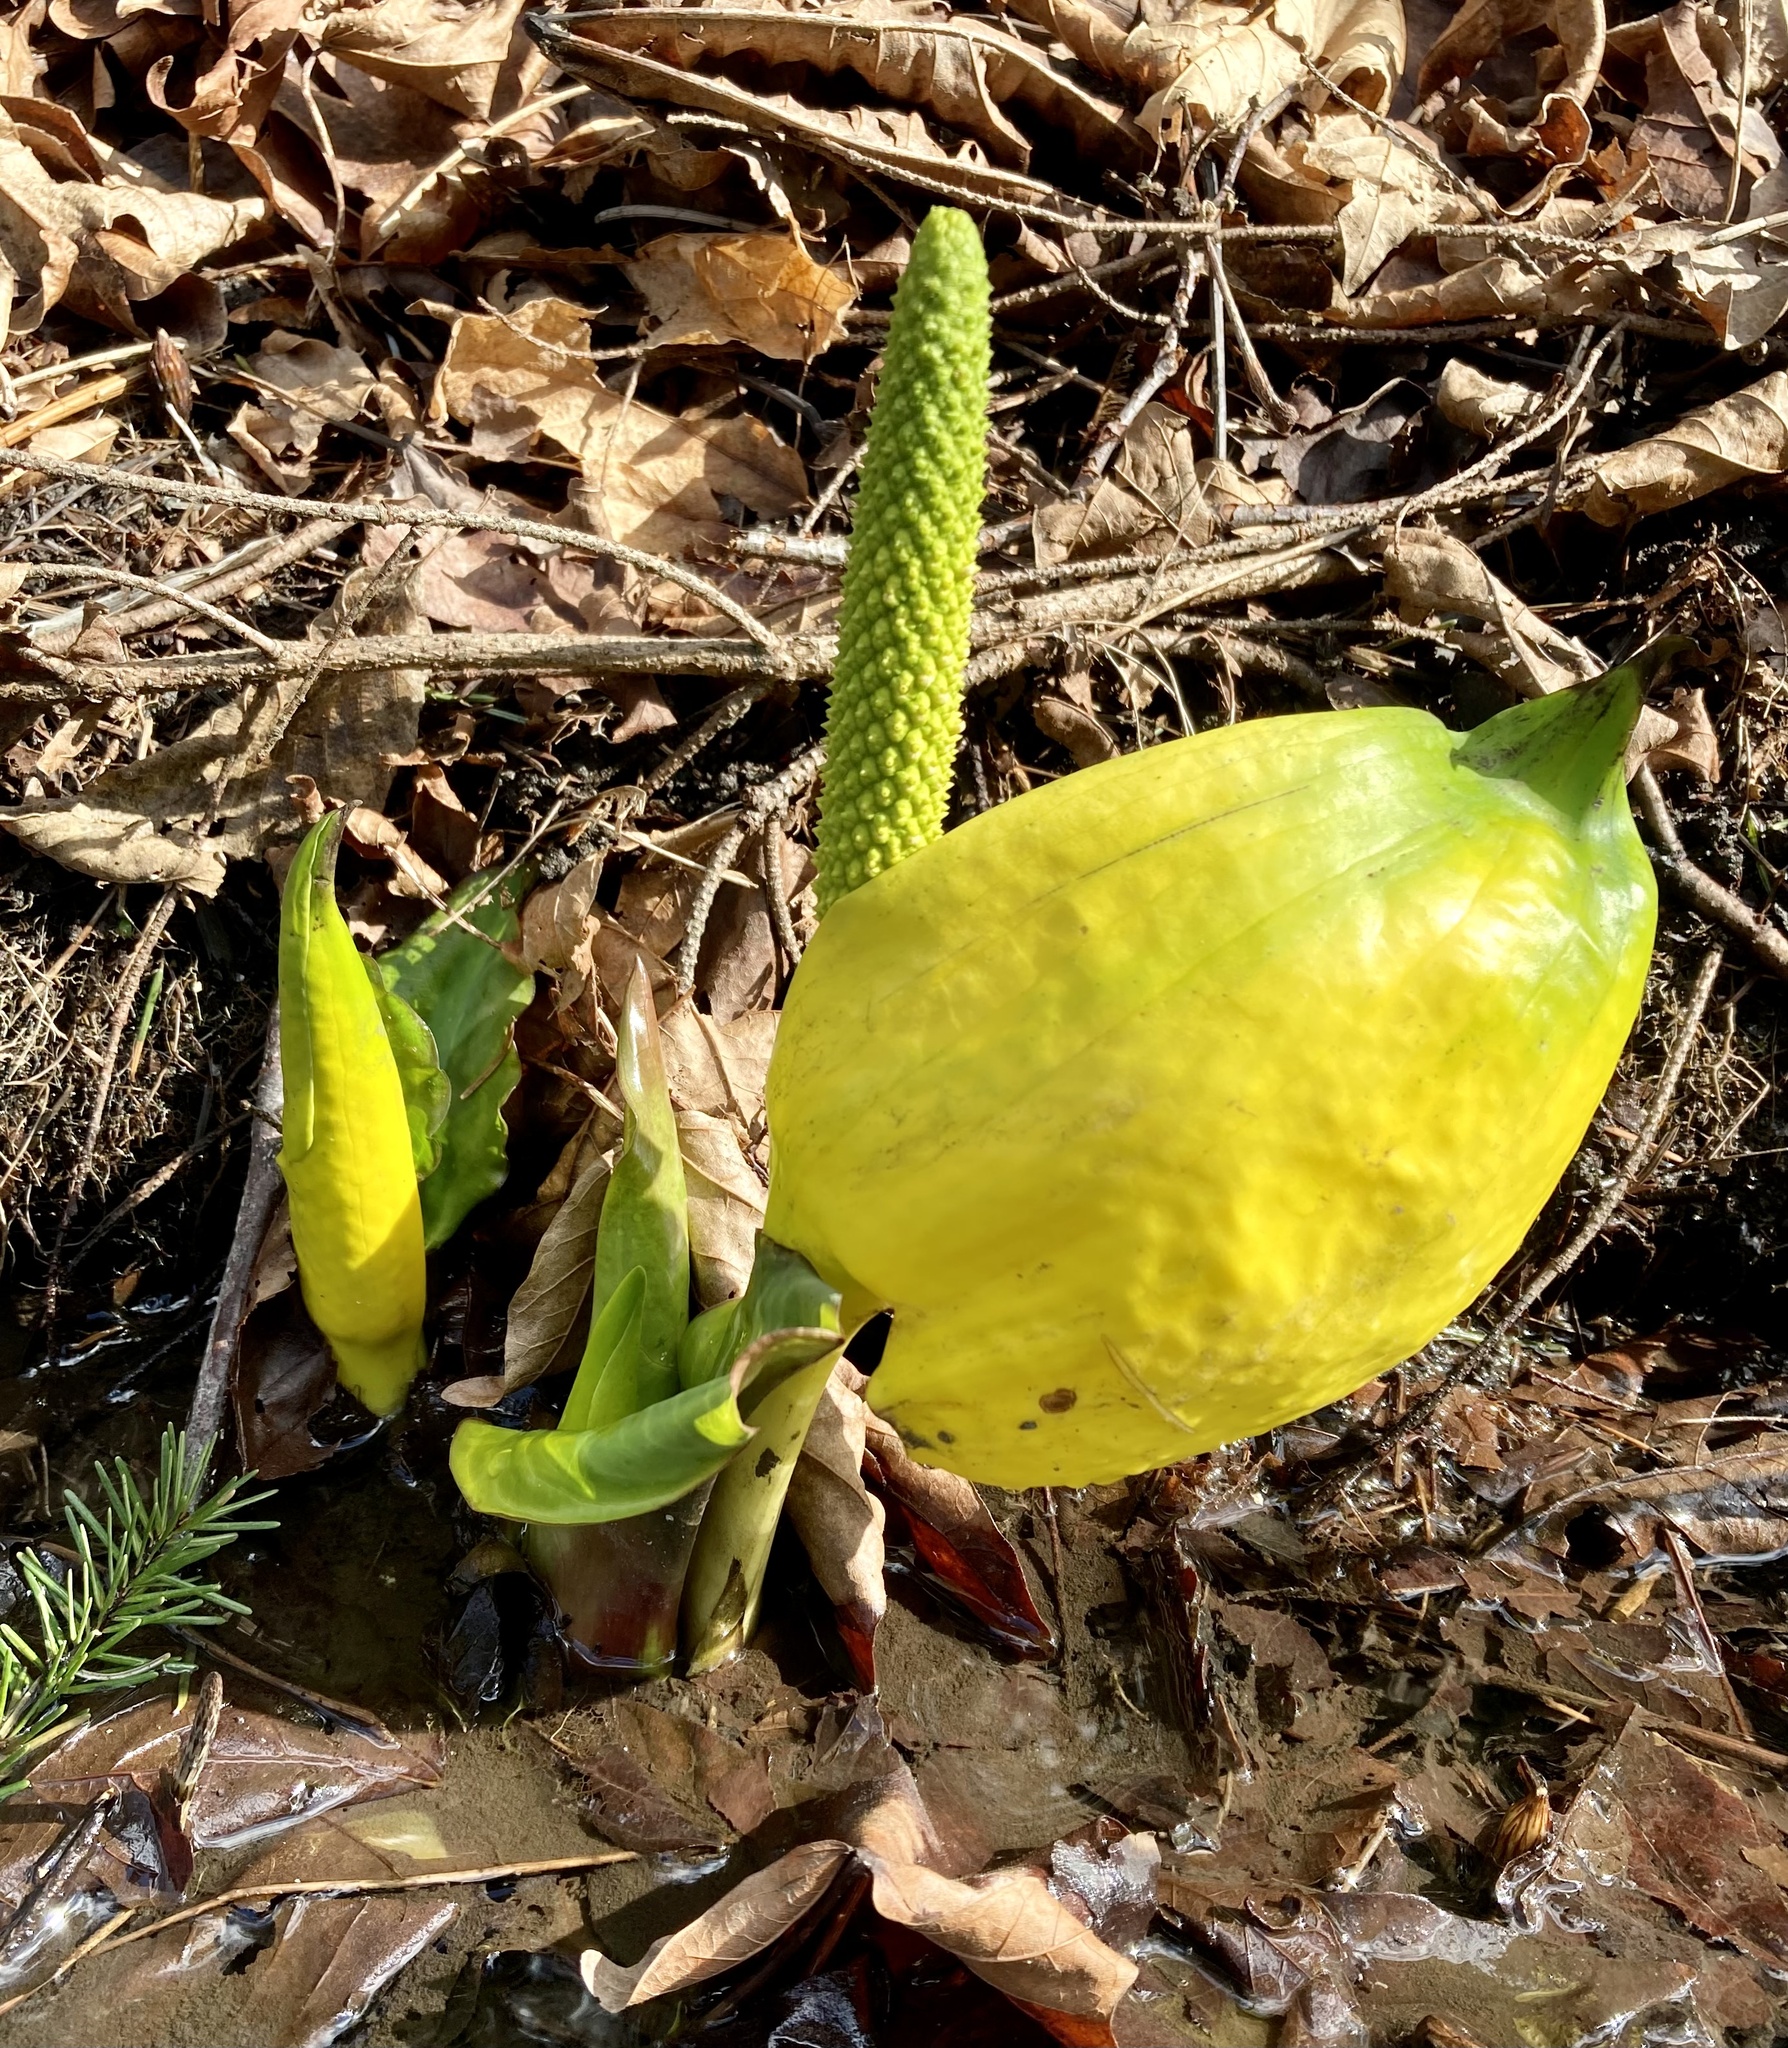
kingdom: Plantae
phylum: Tracheophyta
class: Liliopsida
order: Alismatales
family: Araceae
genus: Lysichiton
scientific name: Lysichiton americanus
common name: American skunk cabbage
